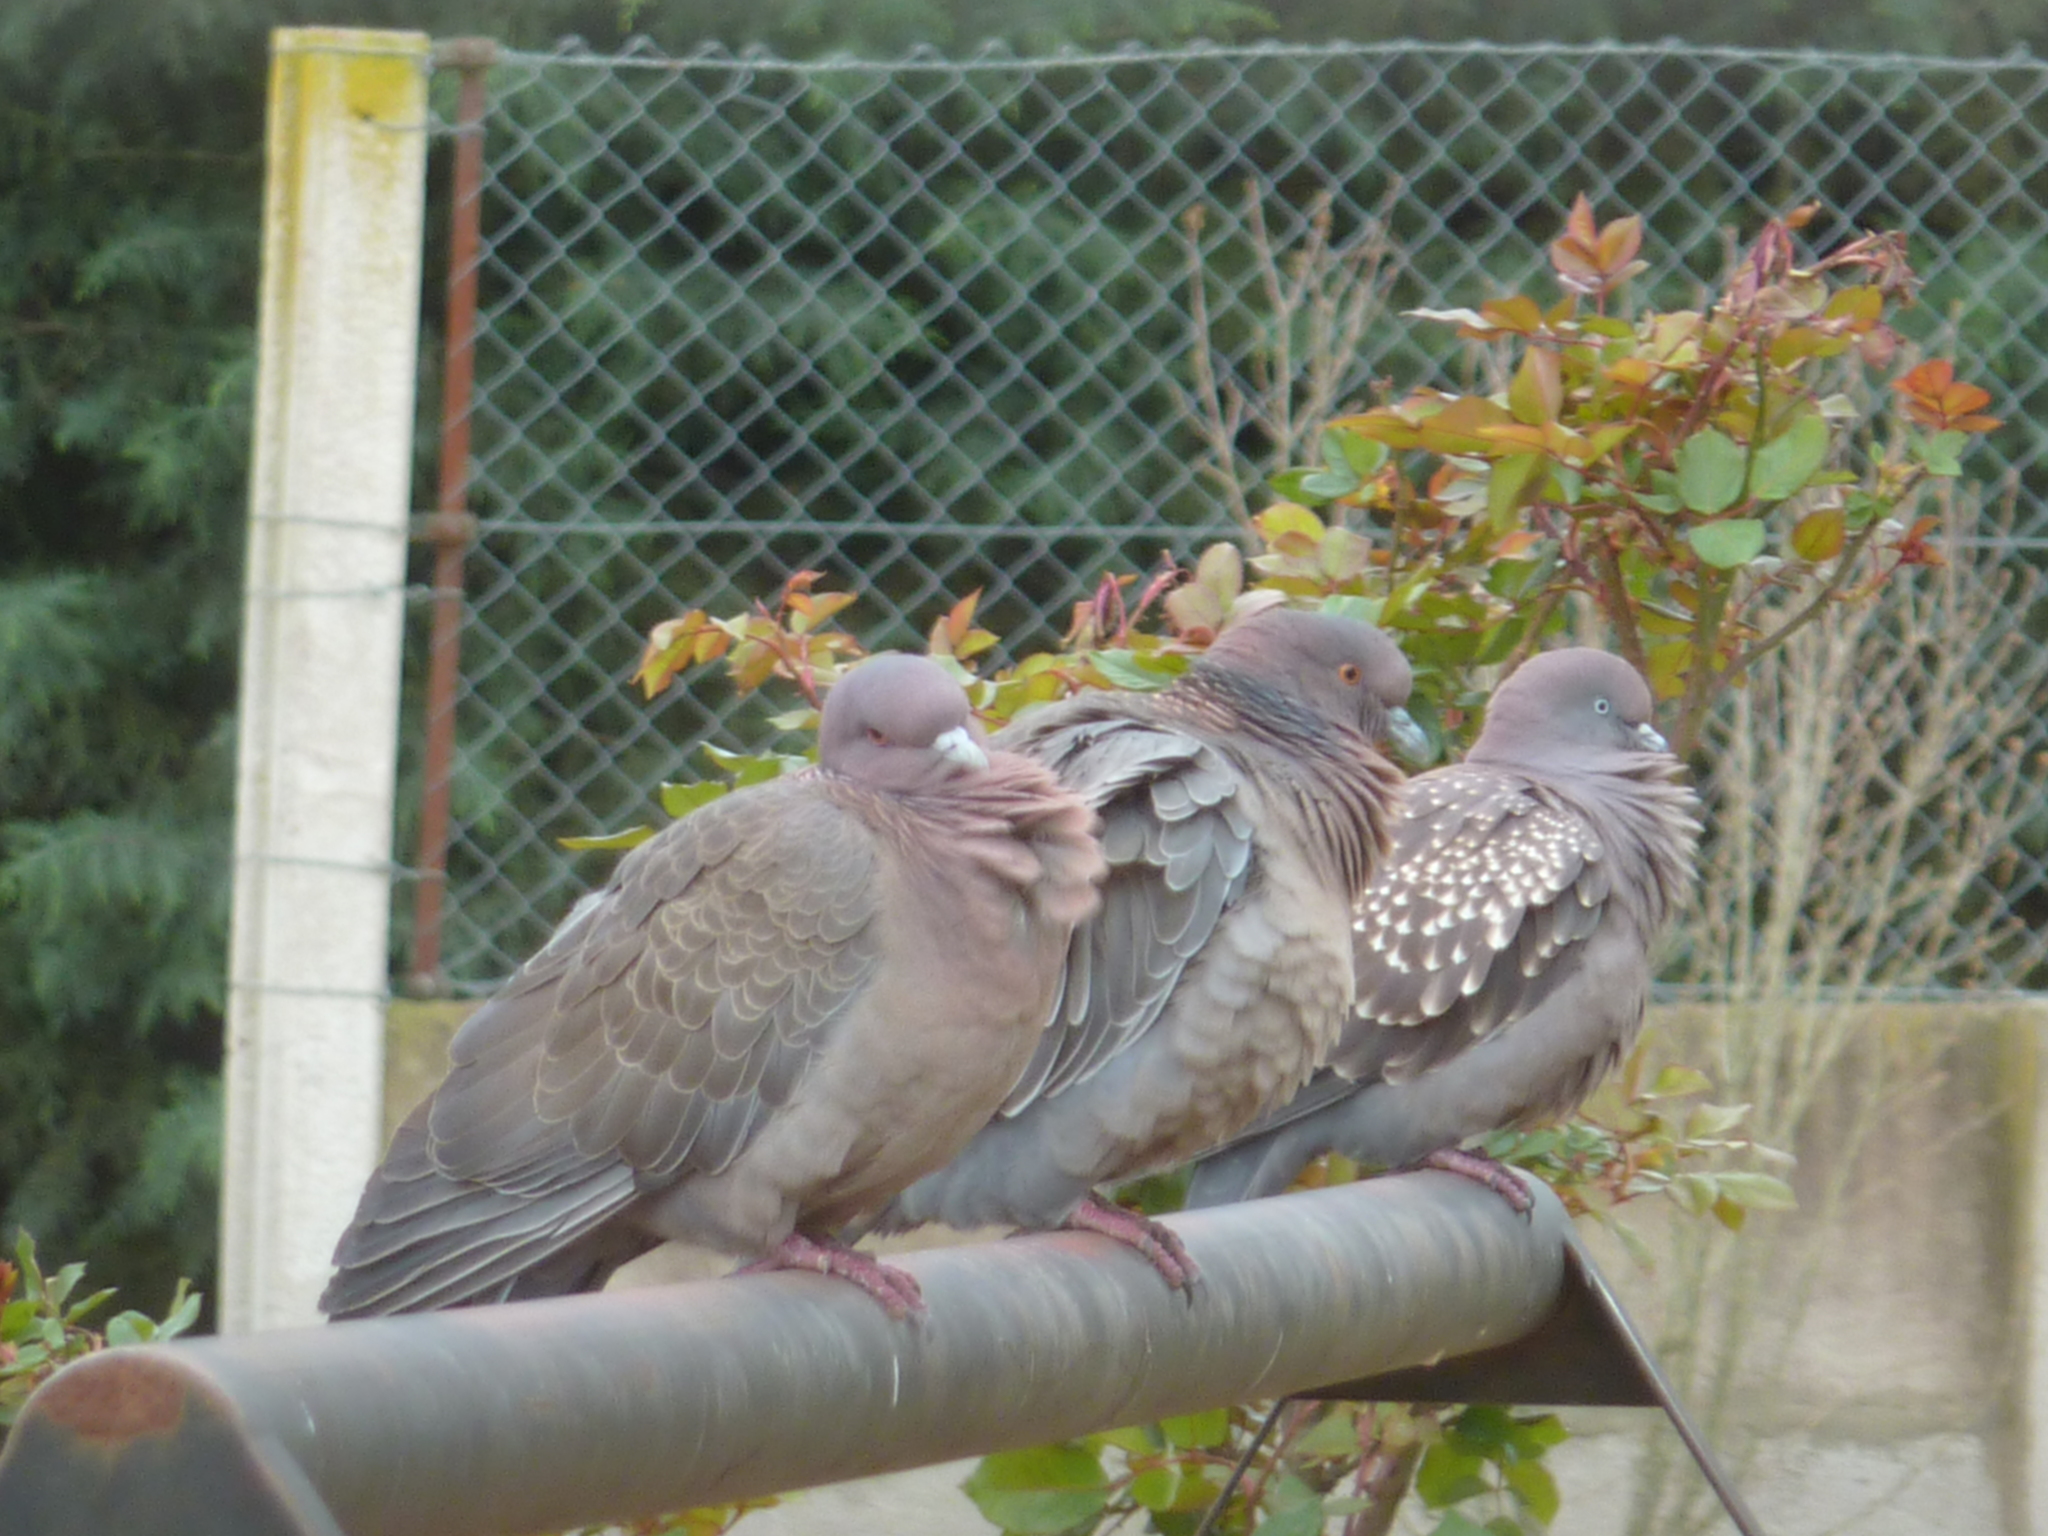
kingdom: Animalia
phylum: Chordata
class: Aves
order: Columbiformes
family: Columbidae
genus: Patagioenas
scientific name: Patagioenas maculosa
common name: Spot-winged pigeon
